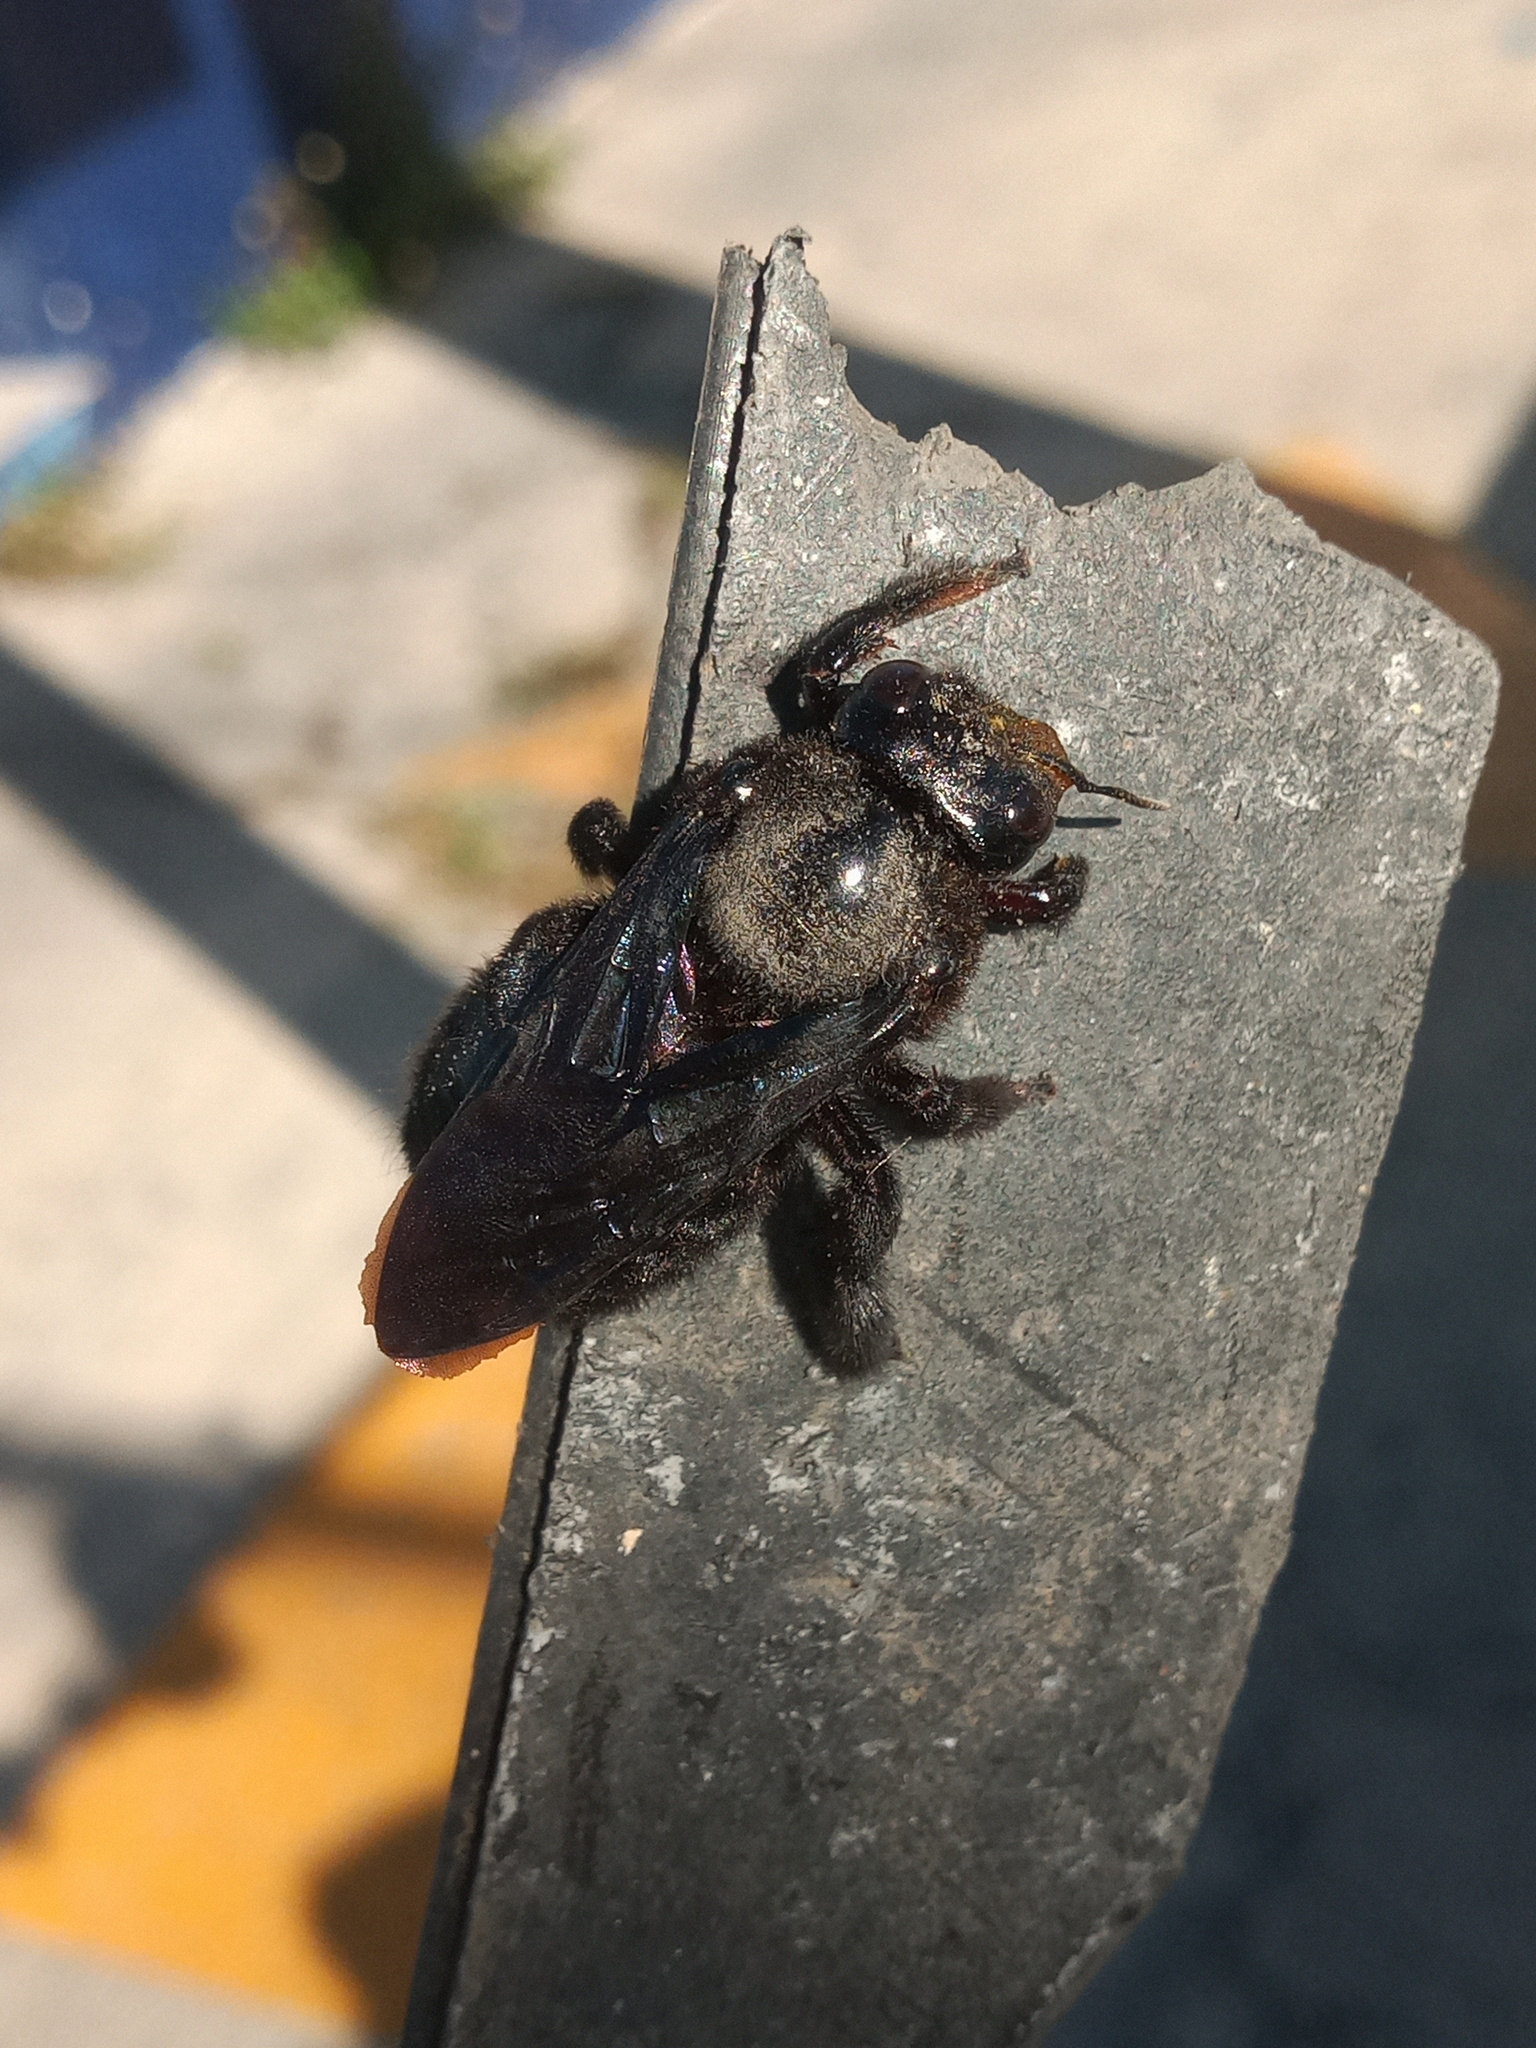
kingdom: Animalia
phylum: Arthropoda
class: Insecta
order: Hymenoptera
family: Apidae
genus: Xylocopa
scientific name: Xylocopa griswoldi
